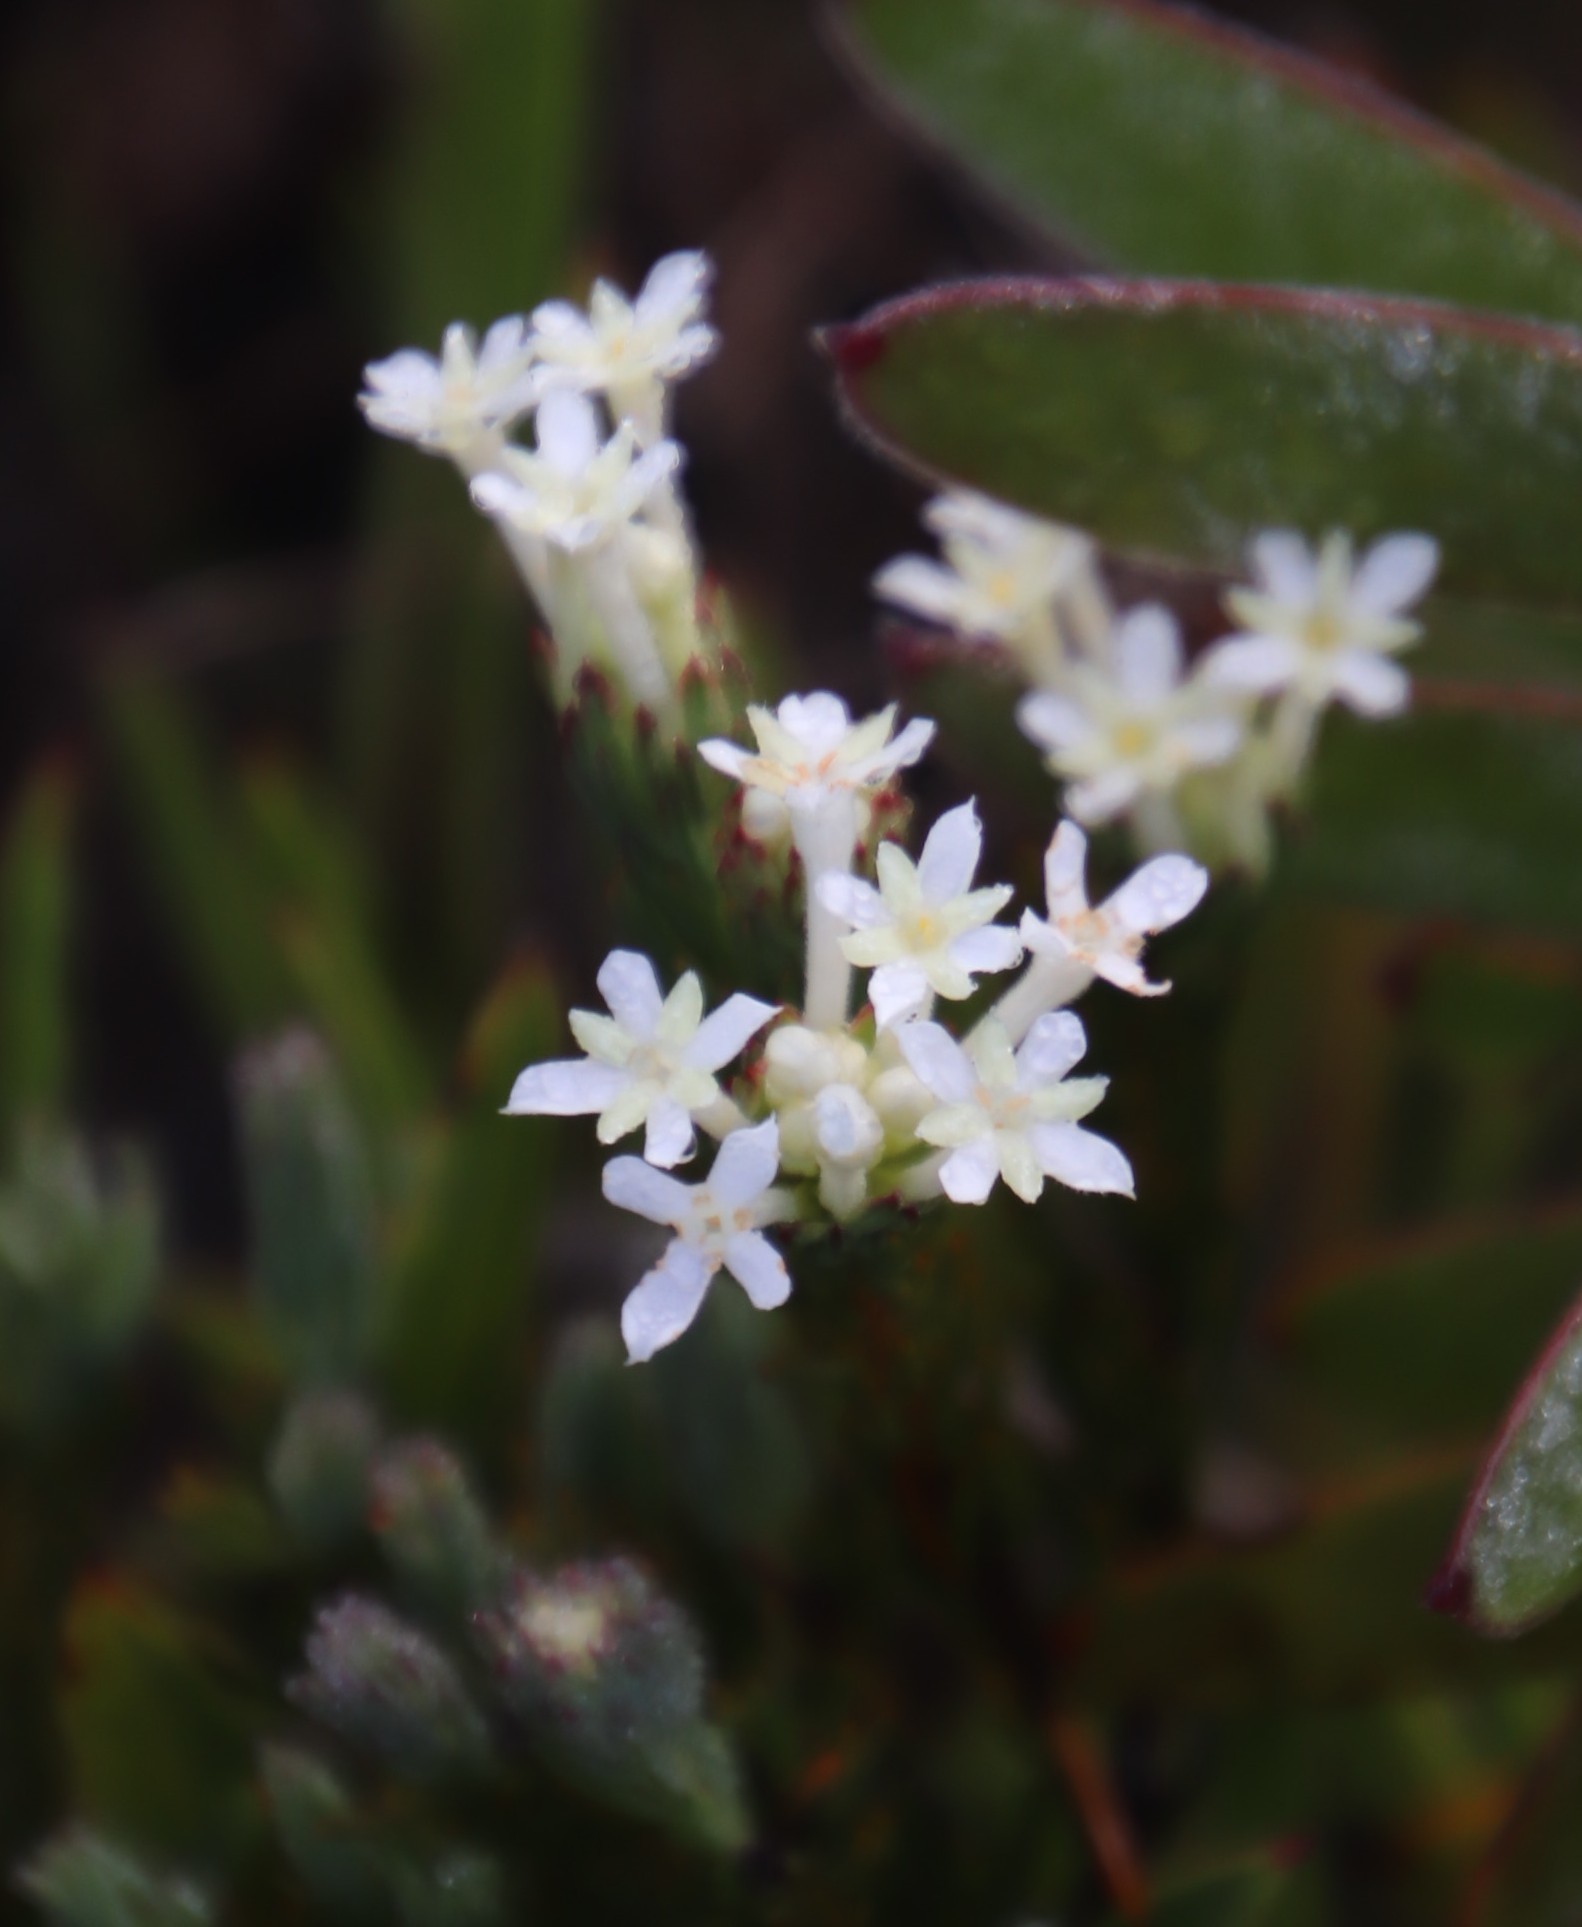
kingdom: Plantae
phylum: Tracheophyta
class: Magnoliopsida
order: Malvales
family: Thymelaeaceae
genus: Gnidia
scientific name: Gnidia pinifolia
